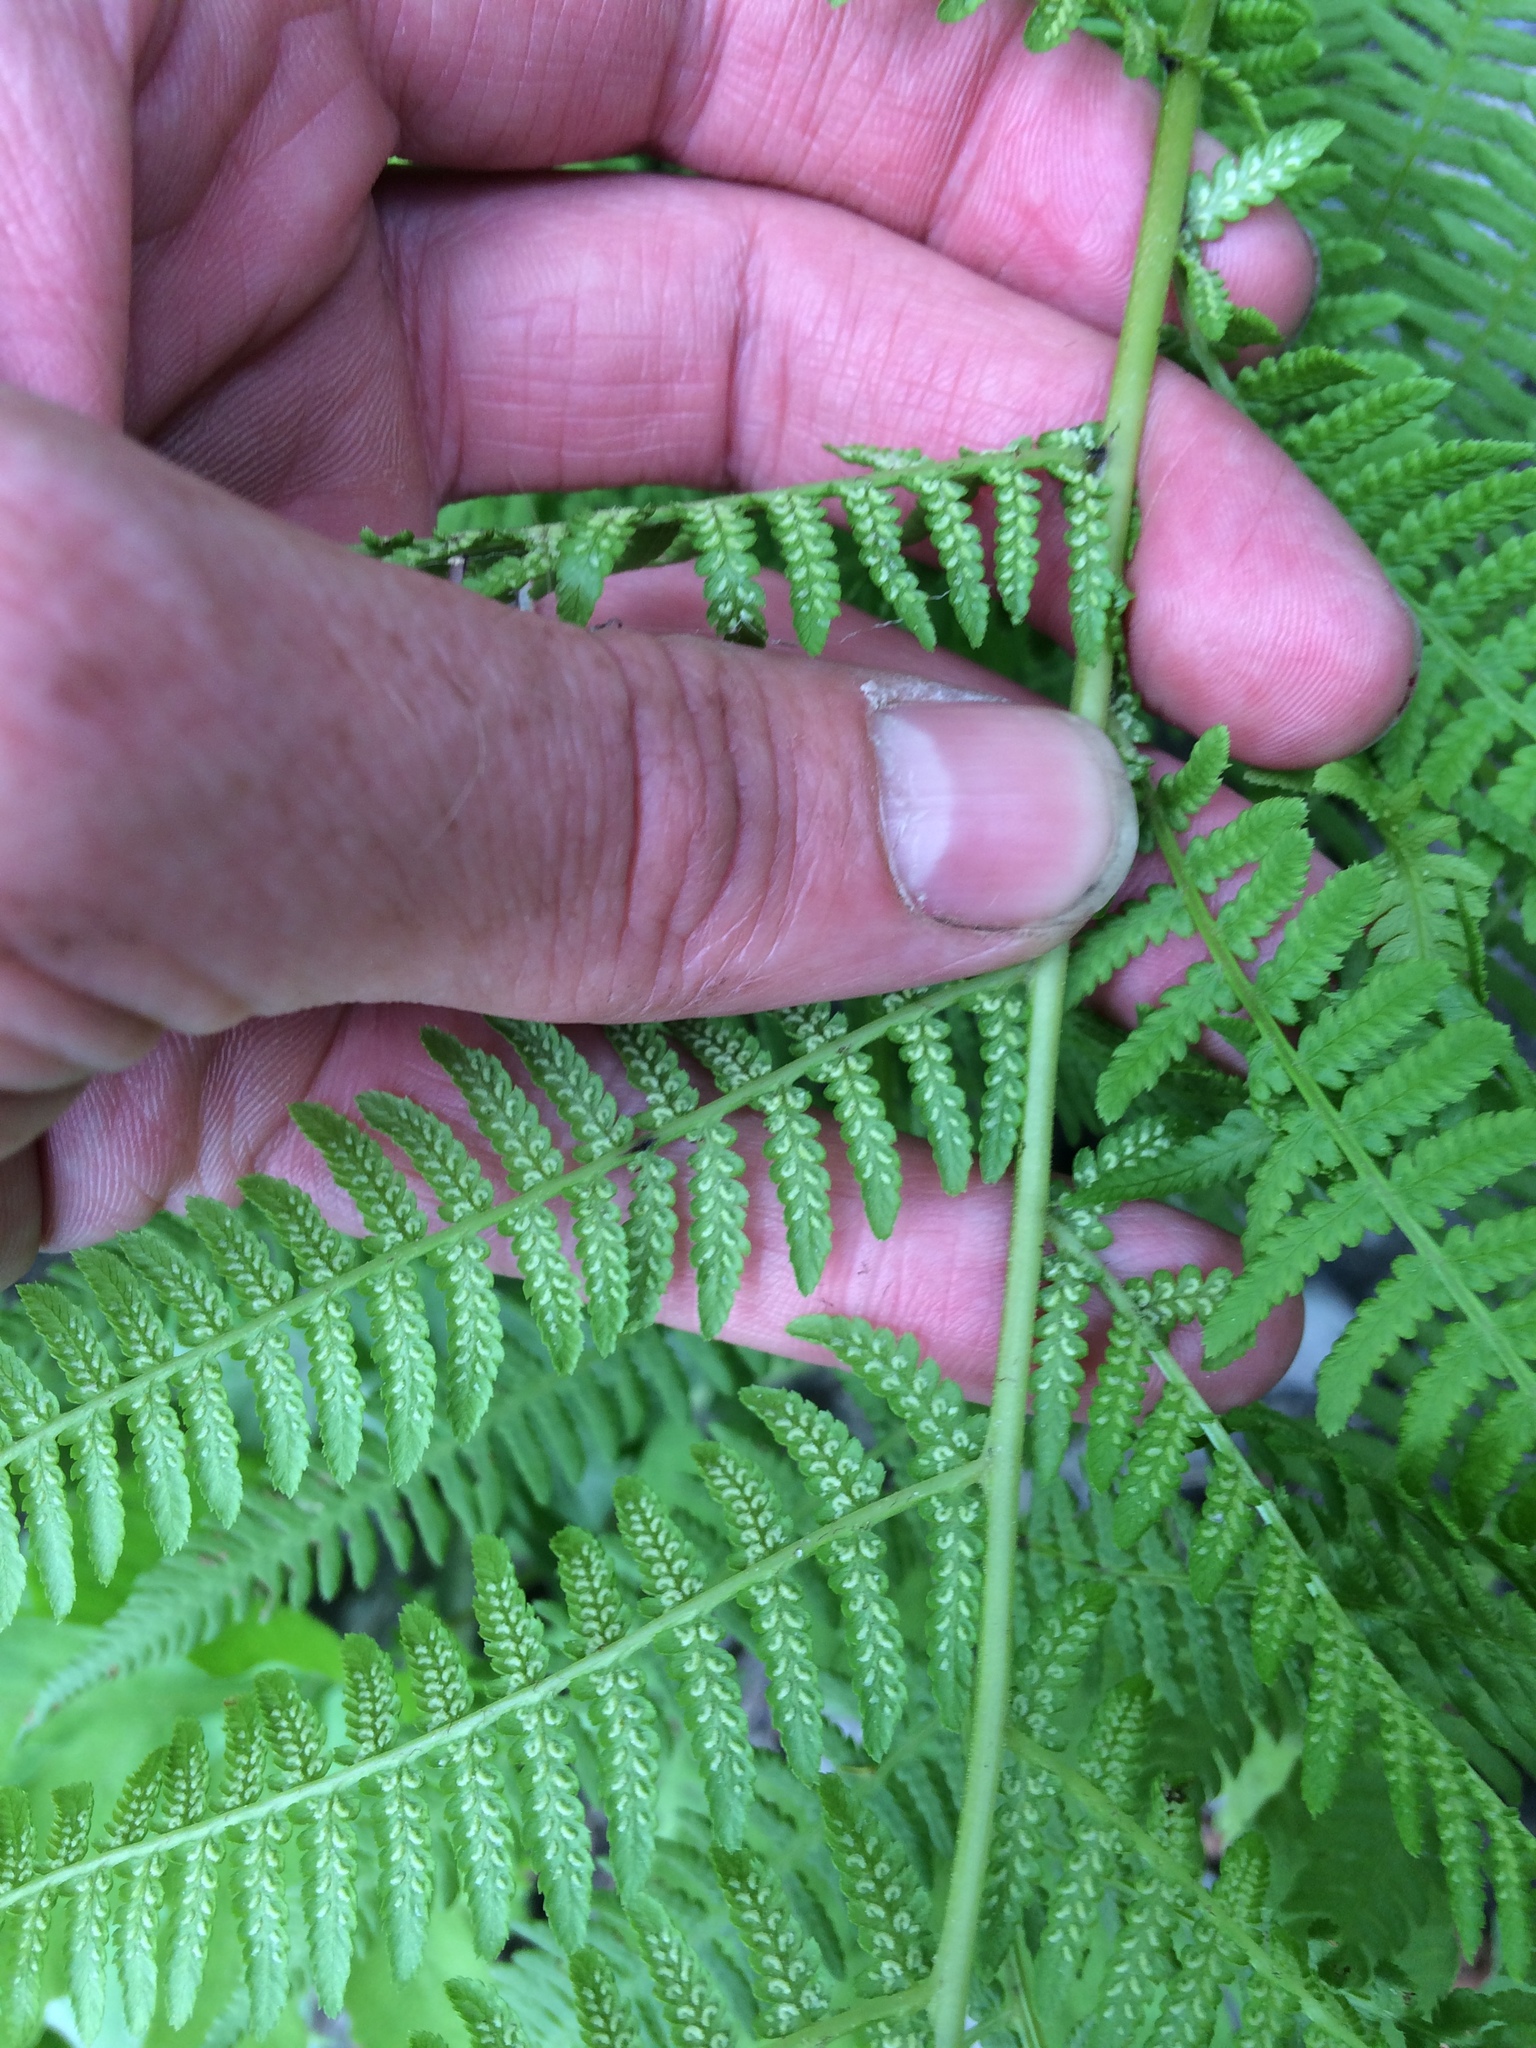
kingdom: Plantae
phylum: Tracheophyta
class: Polypodiopsida
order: Polypodiales
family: Athyriaceae
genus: Athyrium
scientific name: Athyrium angustum
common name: Northern lady fern
